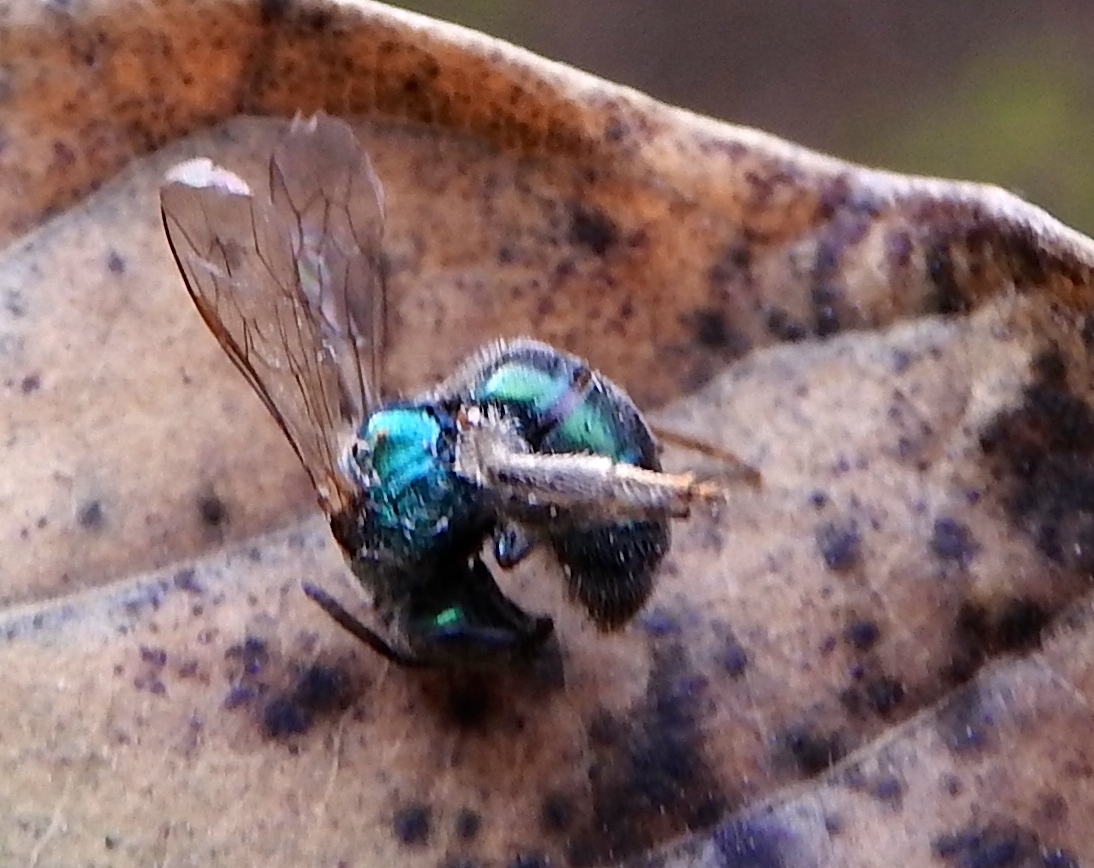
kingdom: Animalia
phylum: Arthropoda
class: Insecta
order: Hymenoptera
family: Halictidae
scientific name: Halictidae
